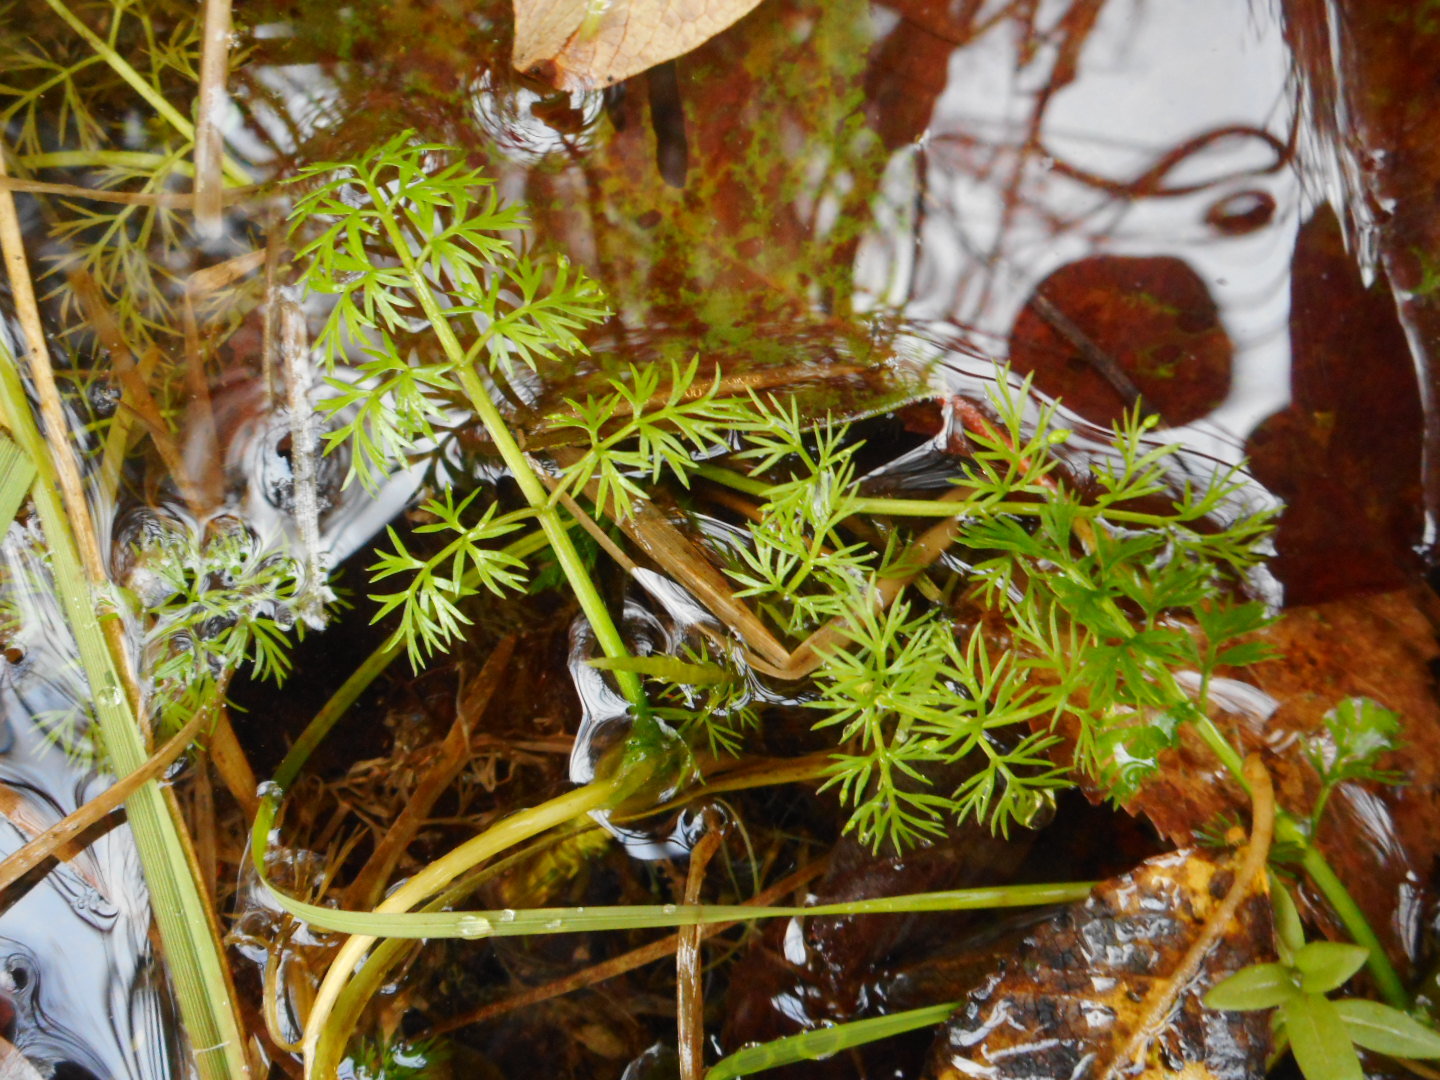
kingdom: Plantae
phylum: Tracheophyta
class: Magnoliopsida
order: Apiales
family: Apiaceae
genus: Oenanthe
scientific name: Oenanthe aquatica
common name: Fine-leaved water-dropwort
